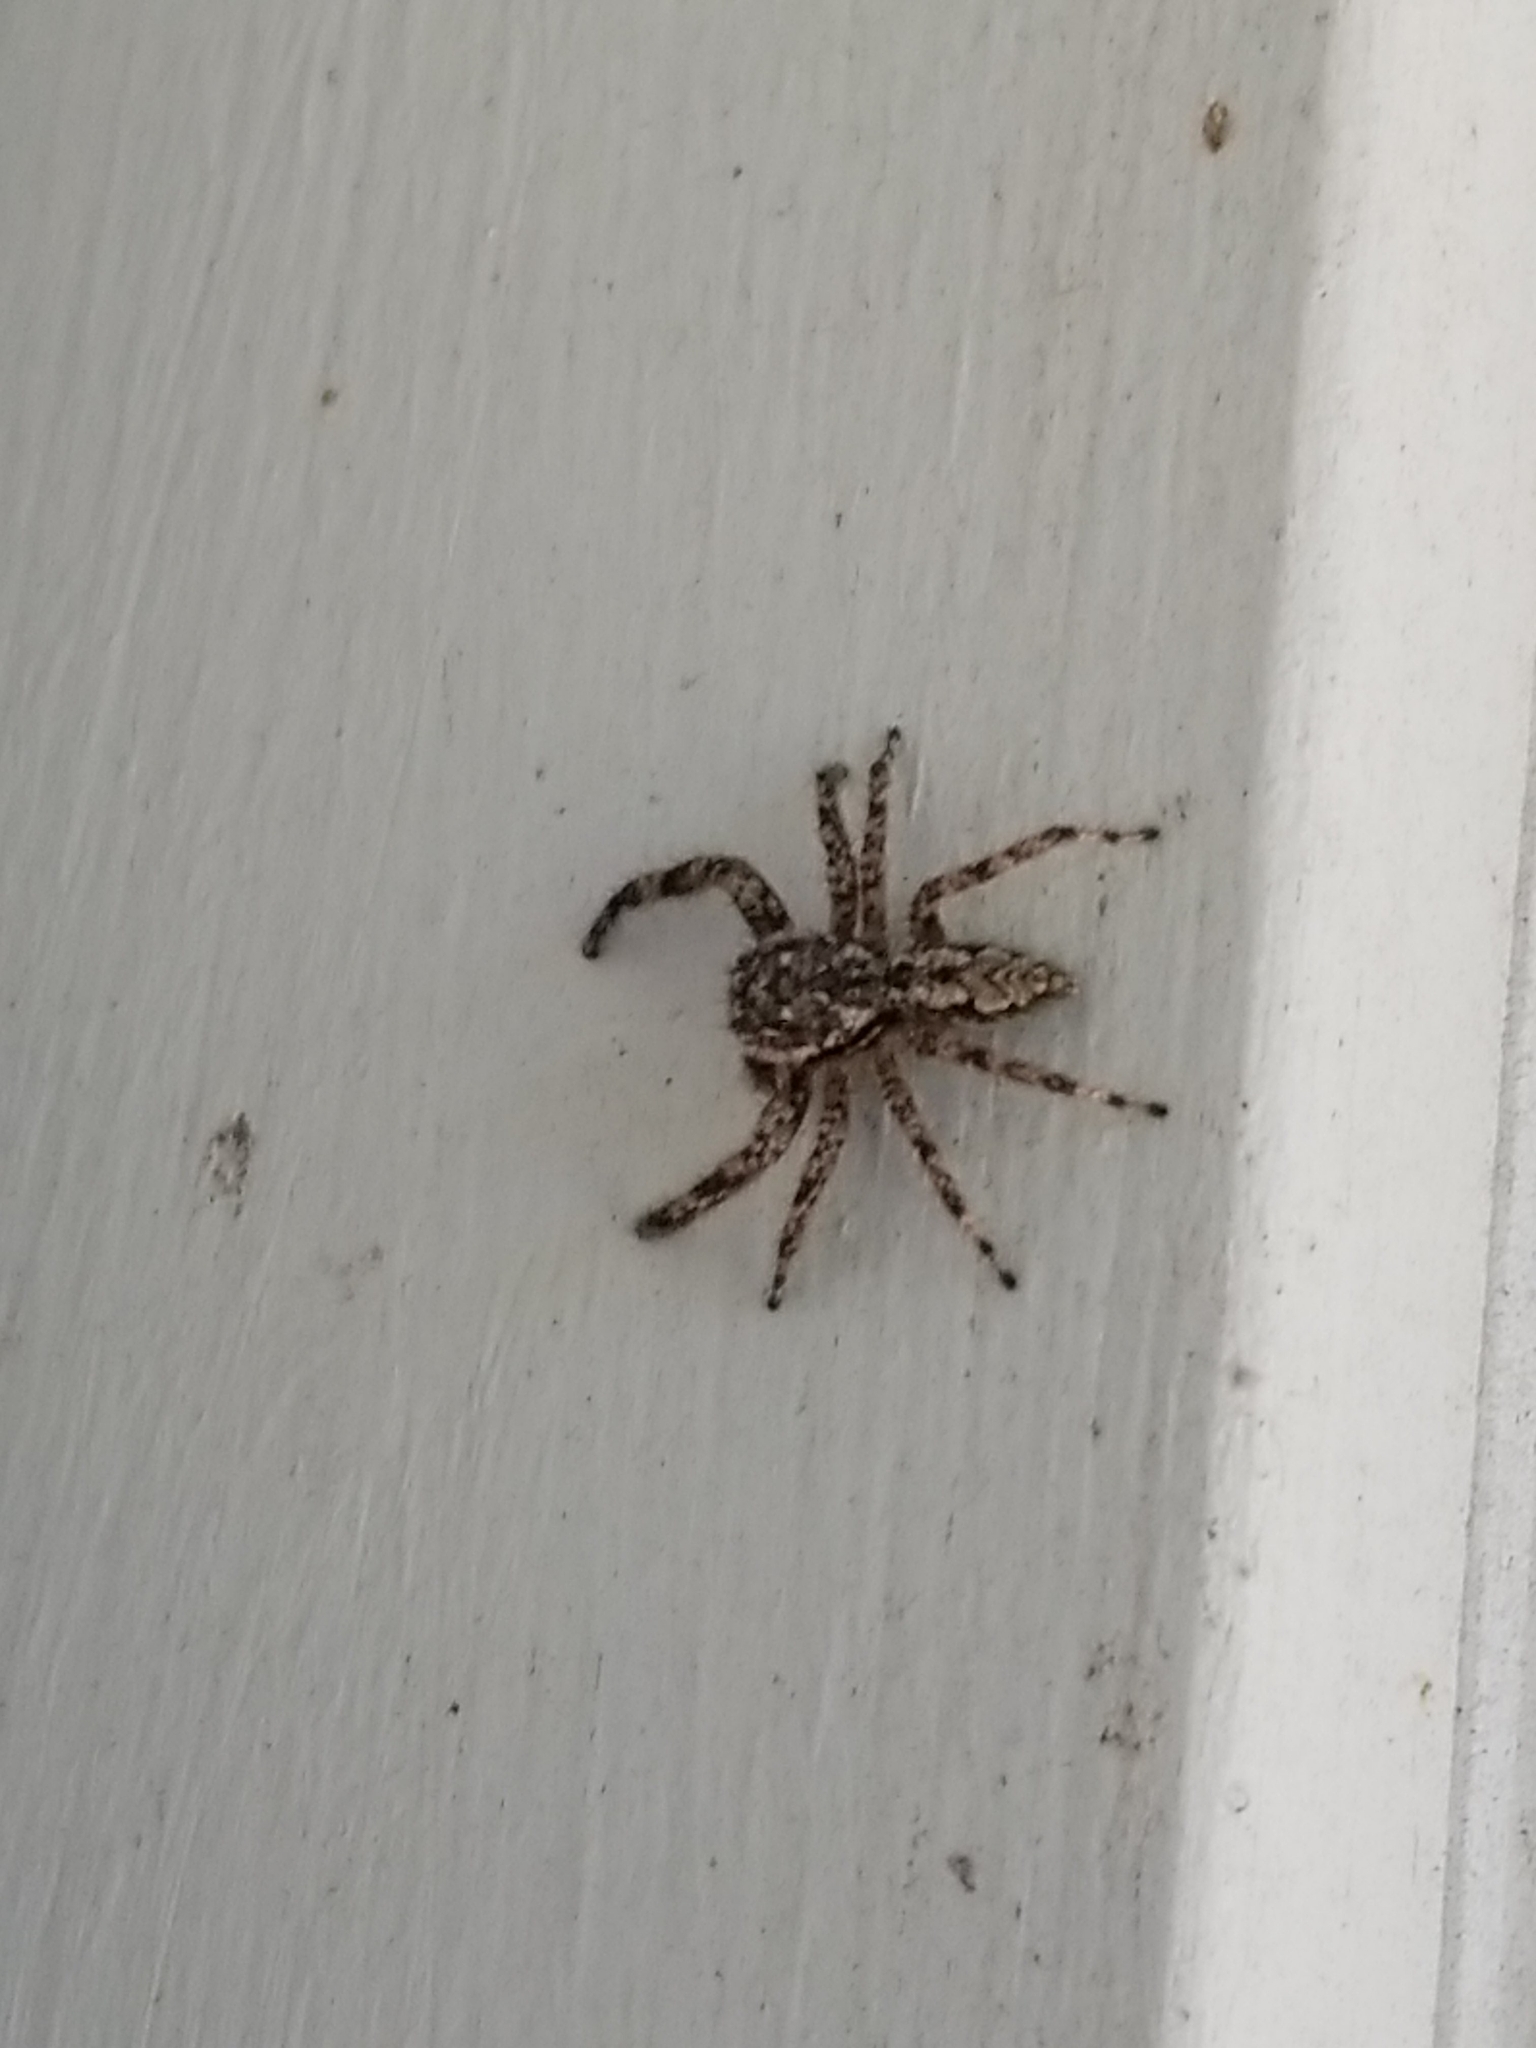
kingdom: Animalia
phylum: Arthropoda
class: Arachnida
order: Araneae
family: Salticidae
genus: Platycryptus
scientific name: Platycryptus undatus
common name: Tan jumping spider
